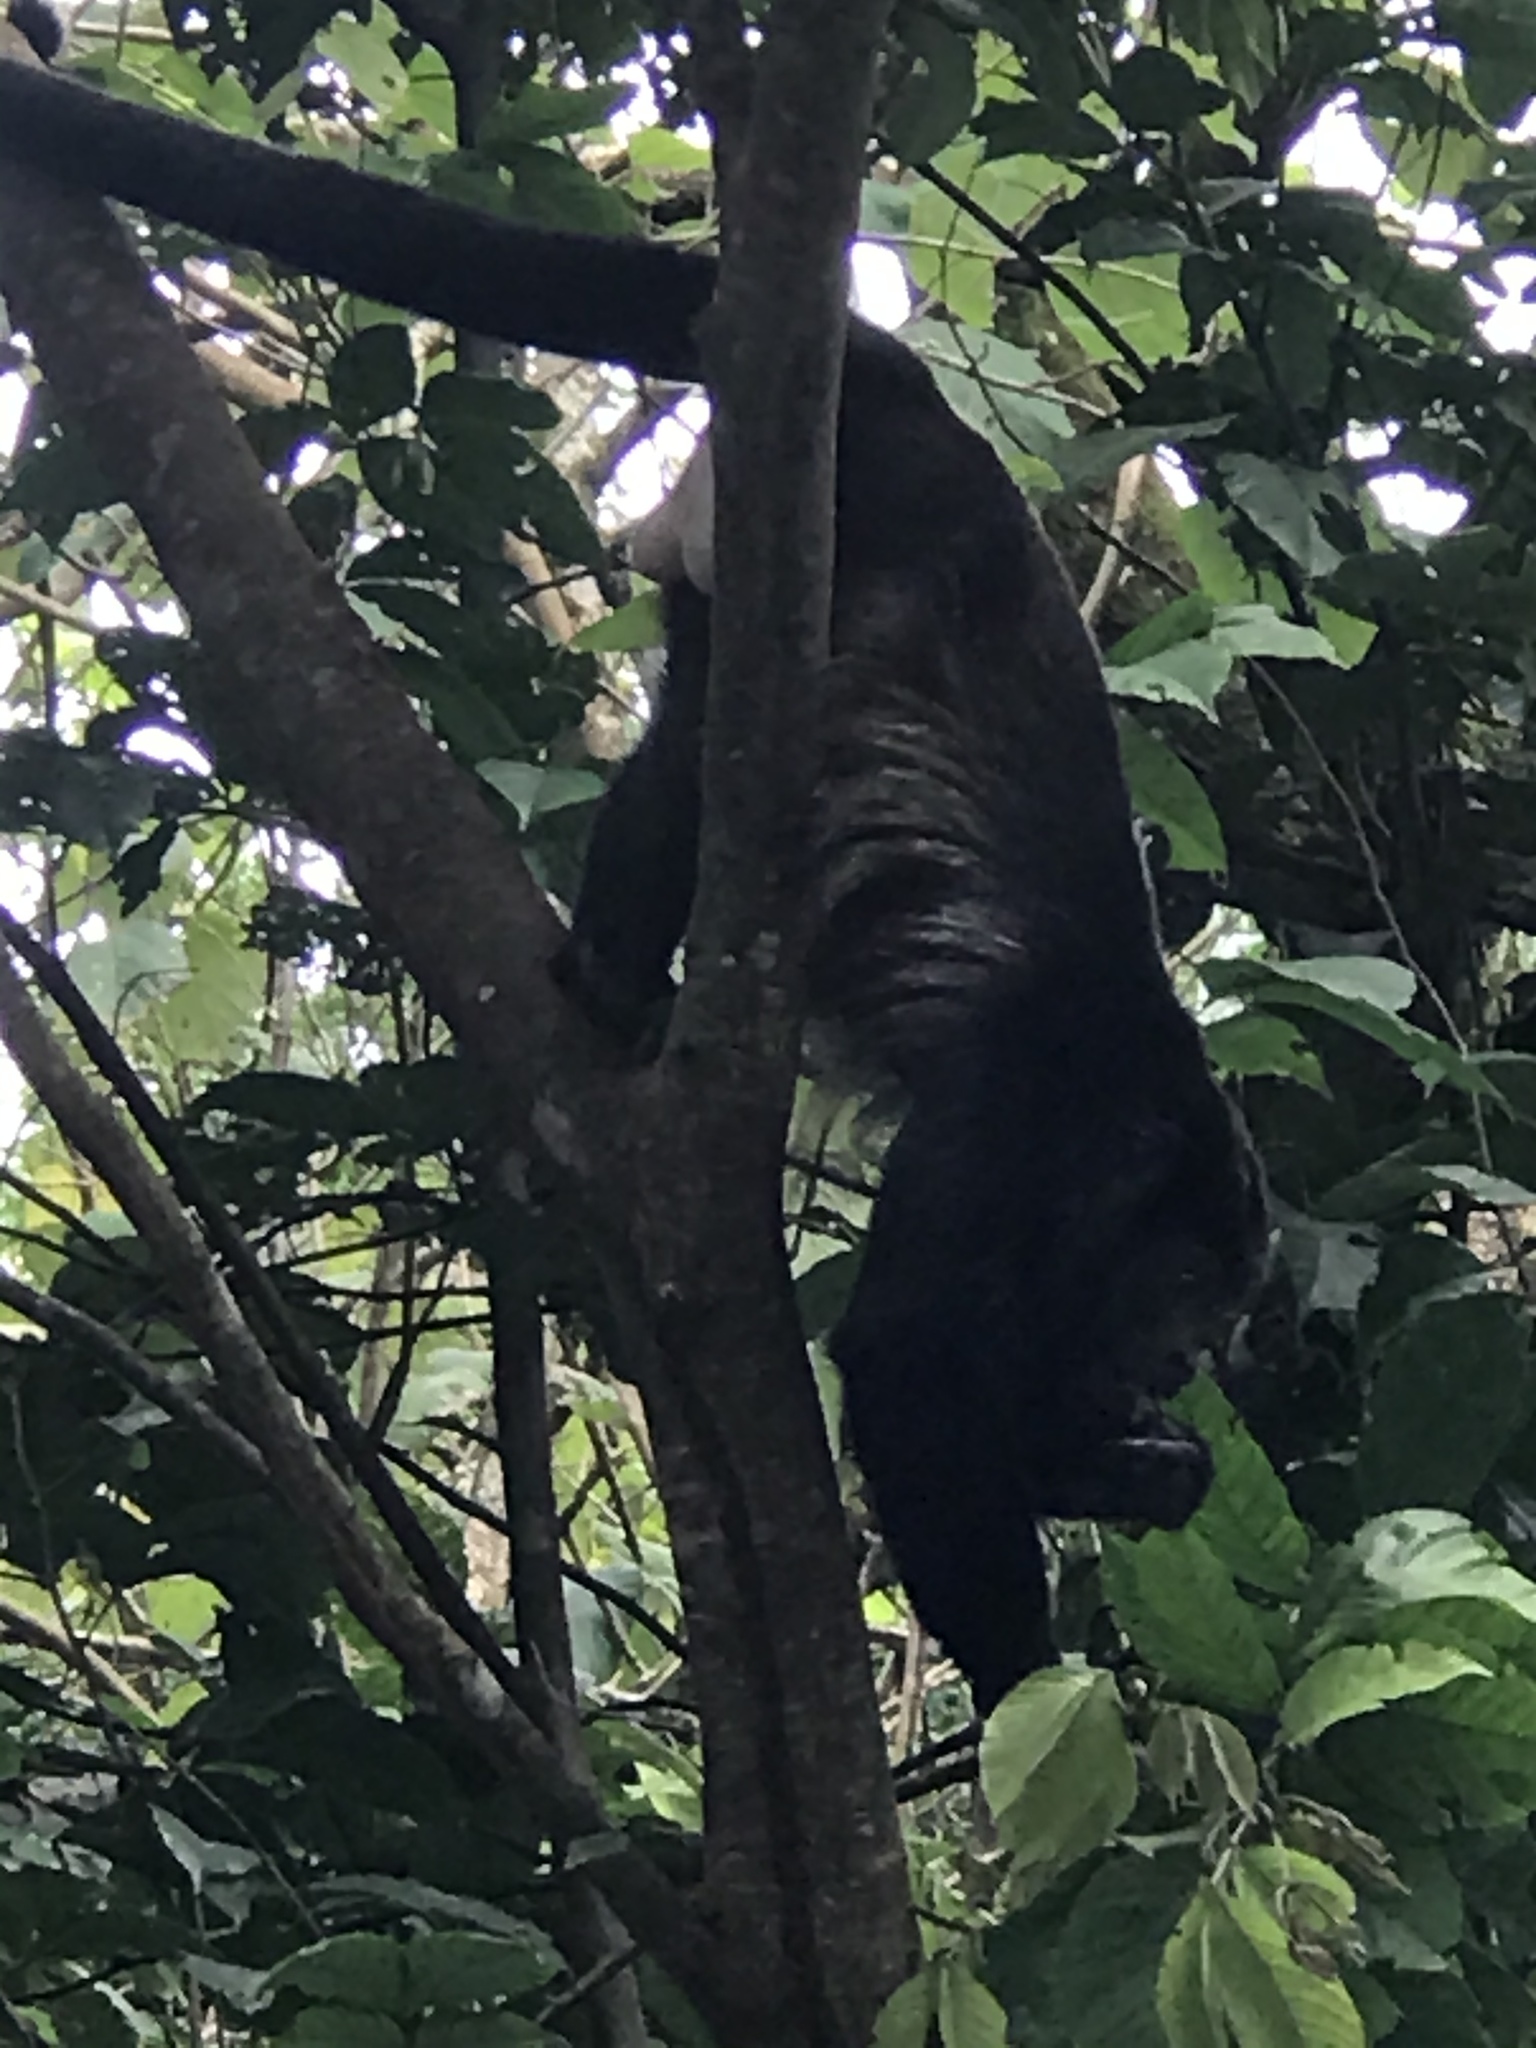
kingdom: Animalia
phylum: Chordata
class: Mammalia
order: Primates
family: Atelidae
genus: Alouatta
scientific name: Alouatta palliata
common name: Mantled howler
